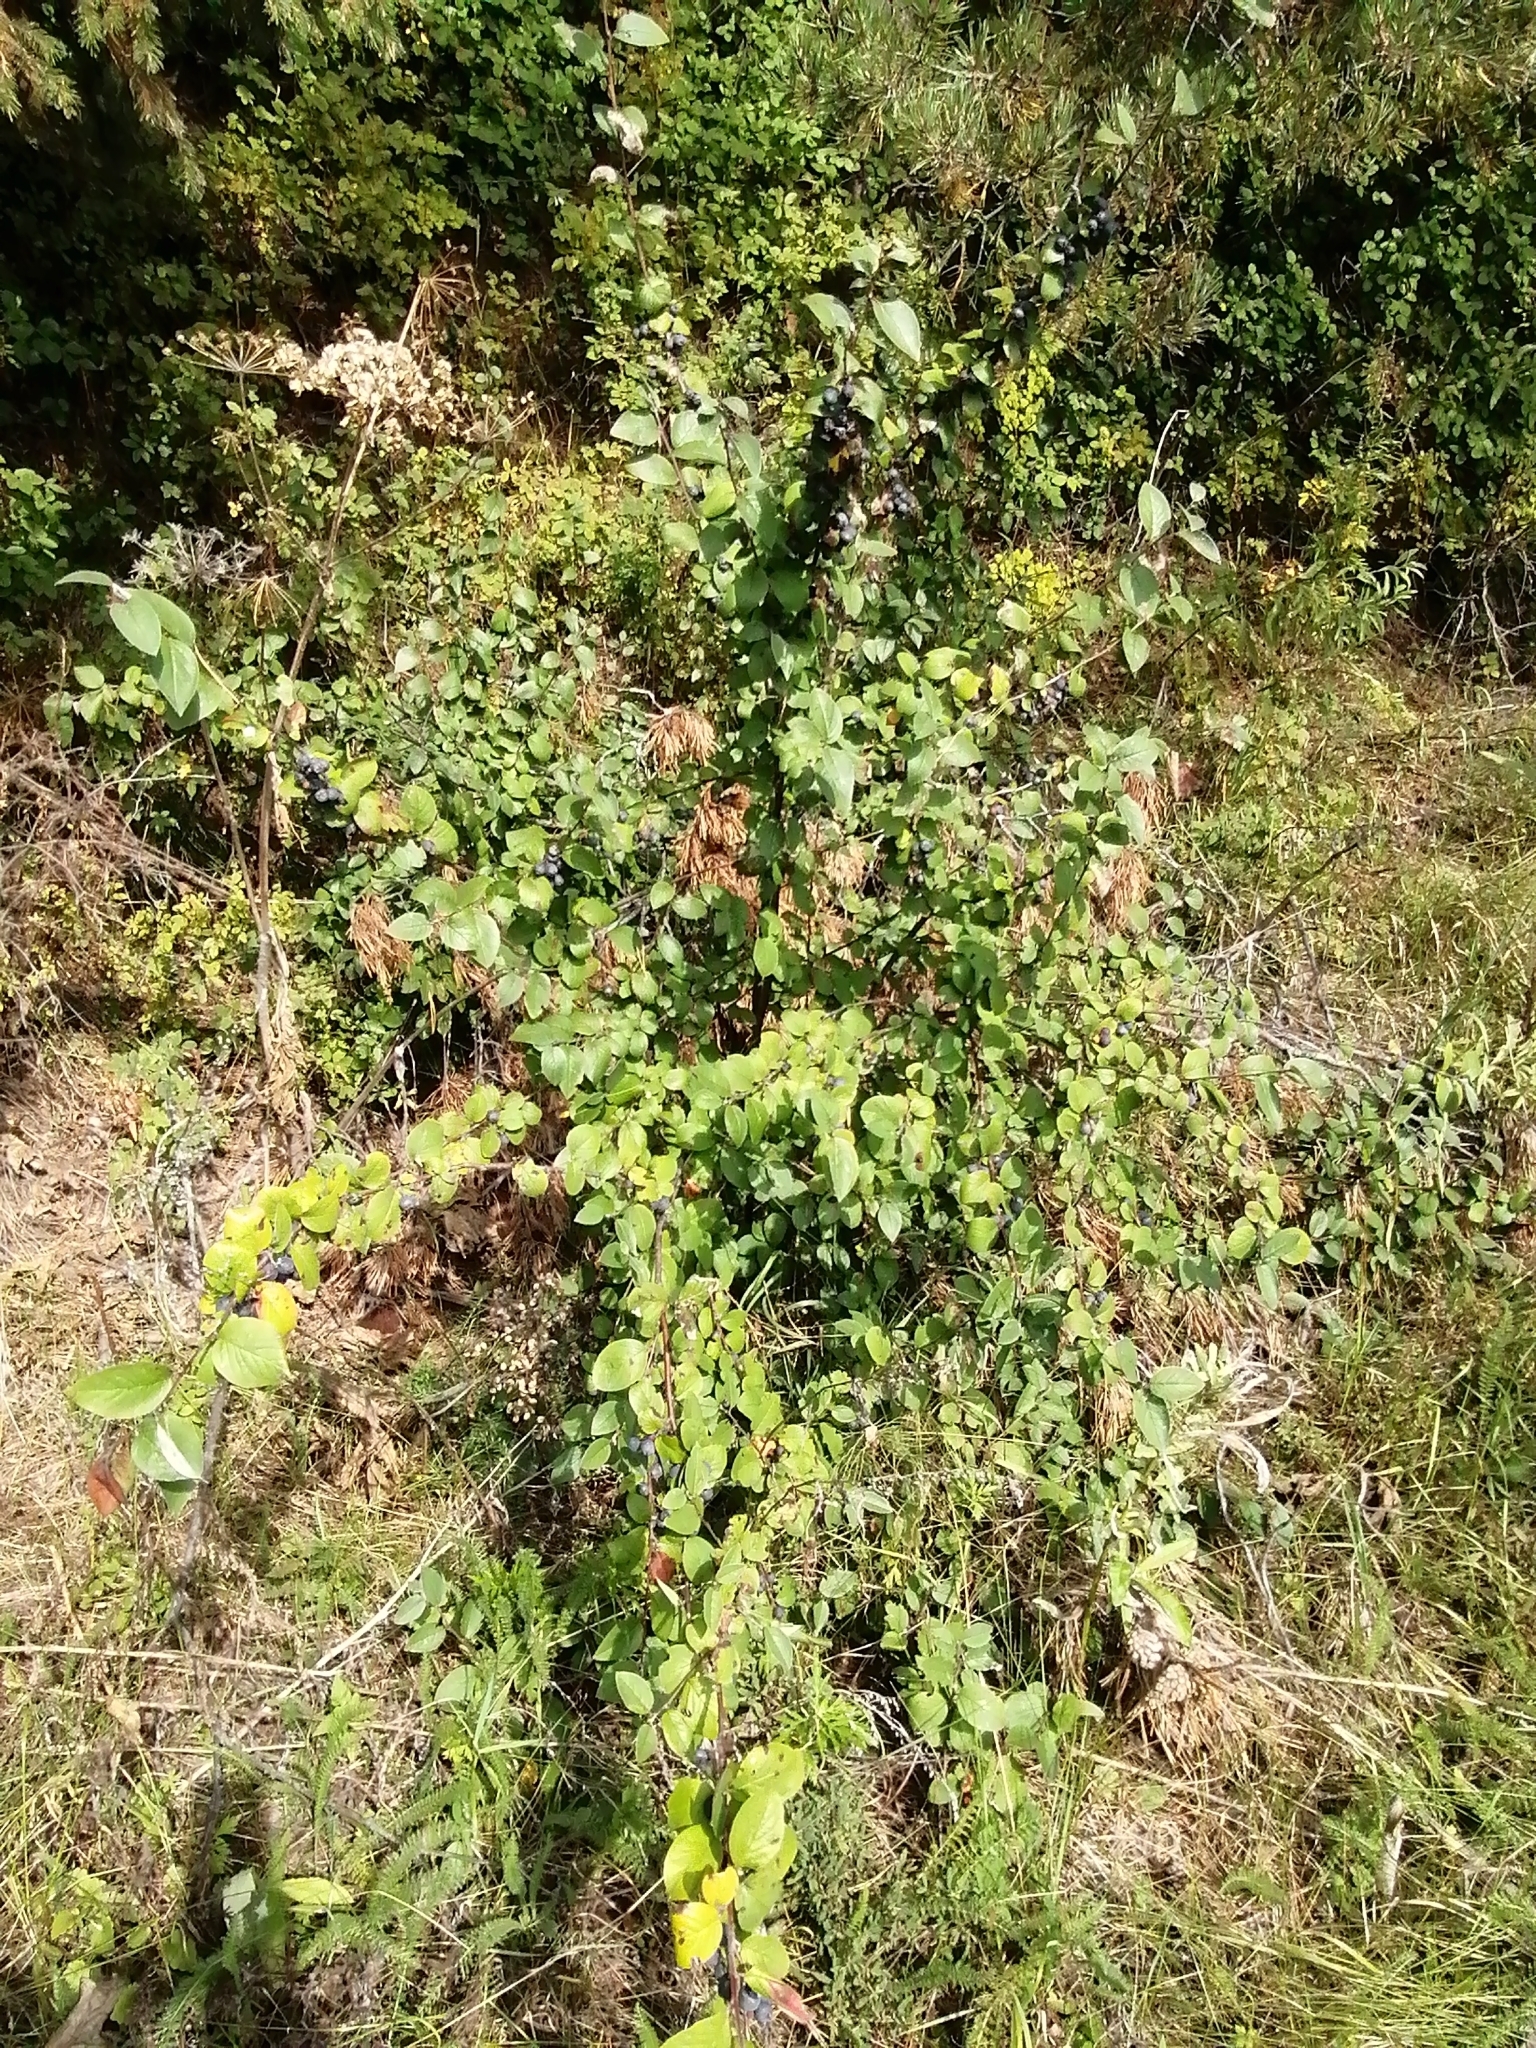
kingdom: Plantae
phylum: Tracheophyta
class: Magnoliopsida
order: Rosales
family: Rosaceae
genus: Cotoneaster
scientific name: Cotoneaster melanocarpus
